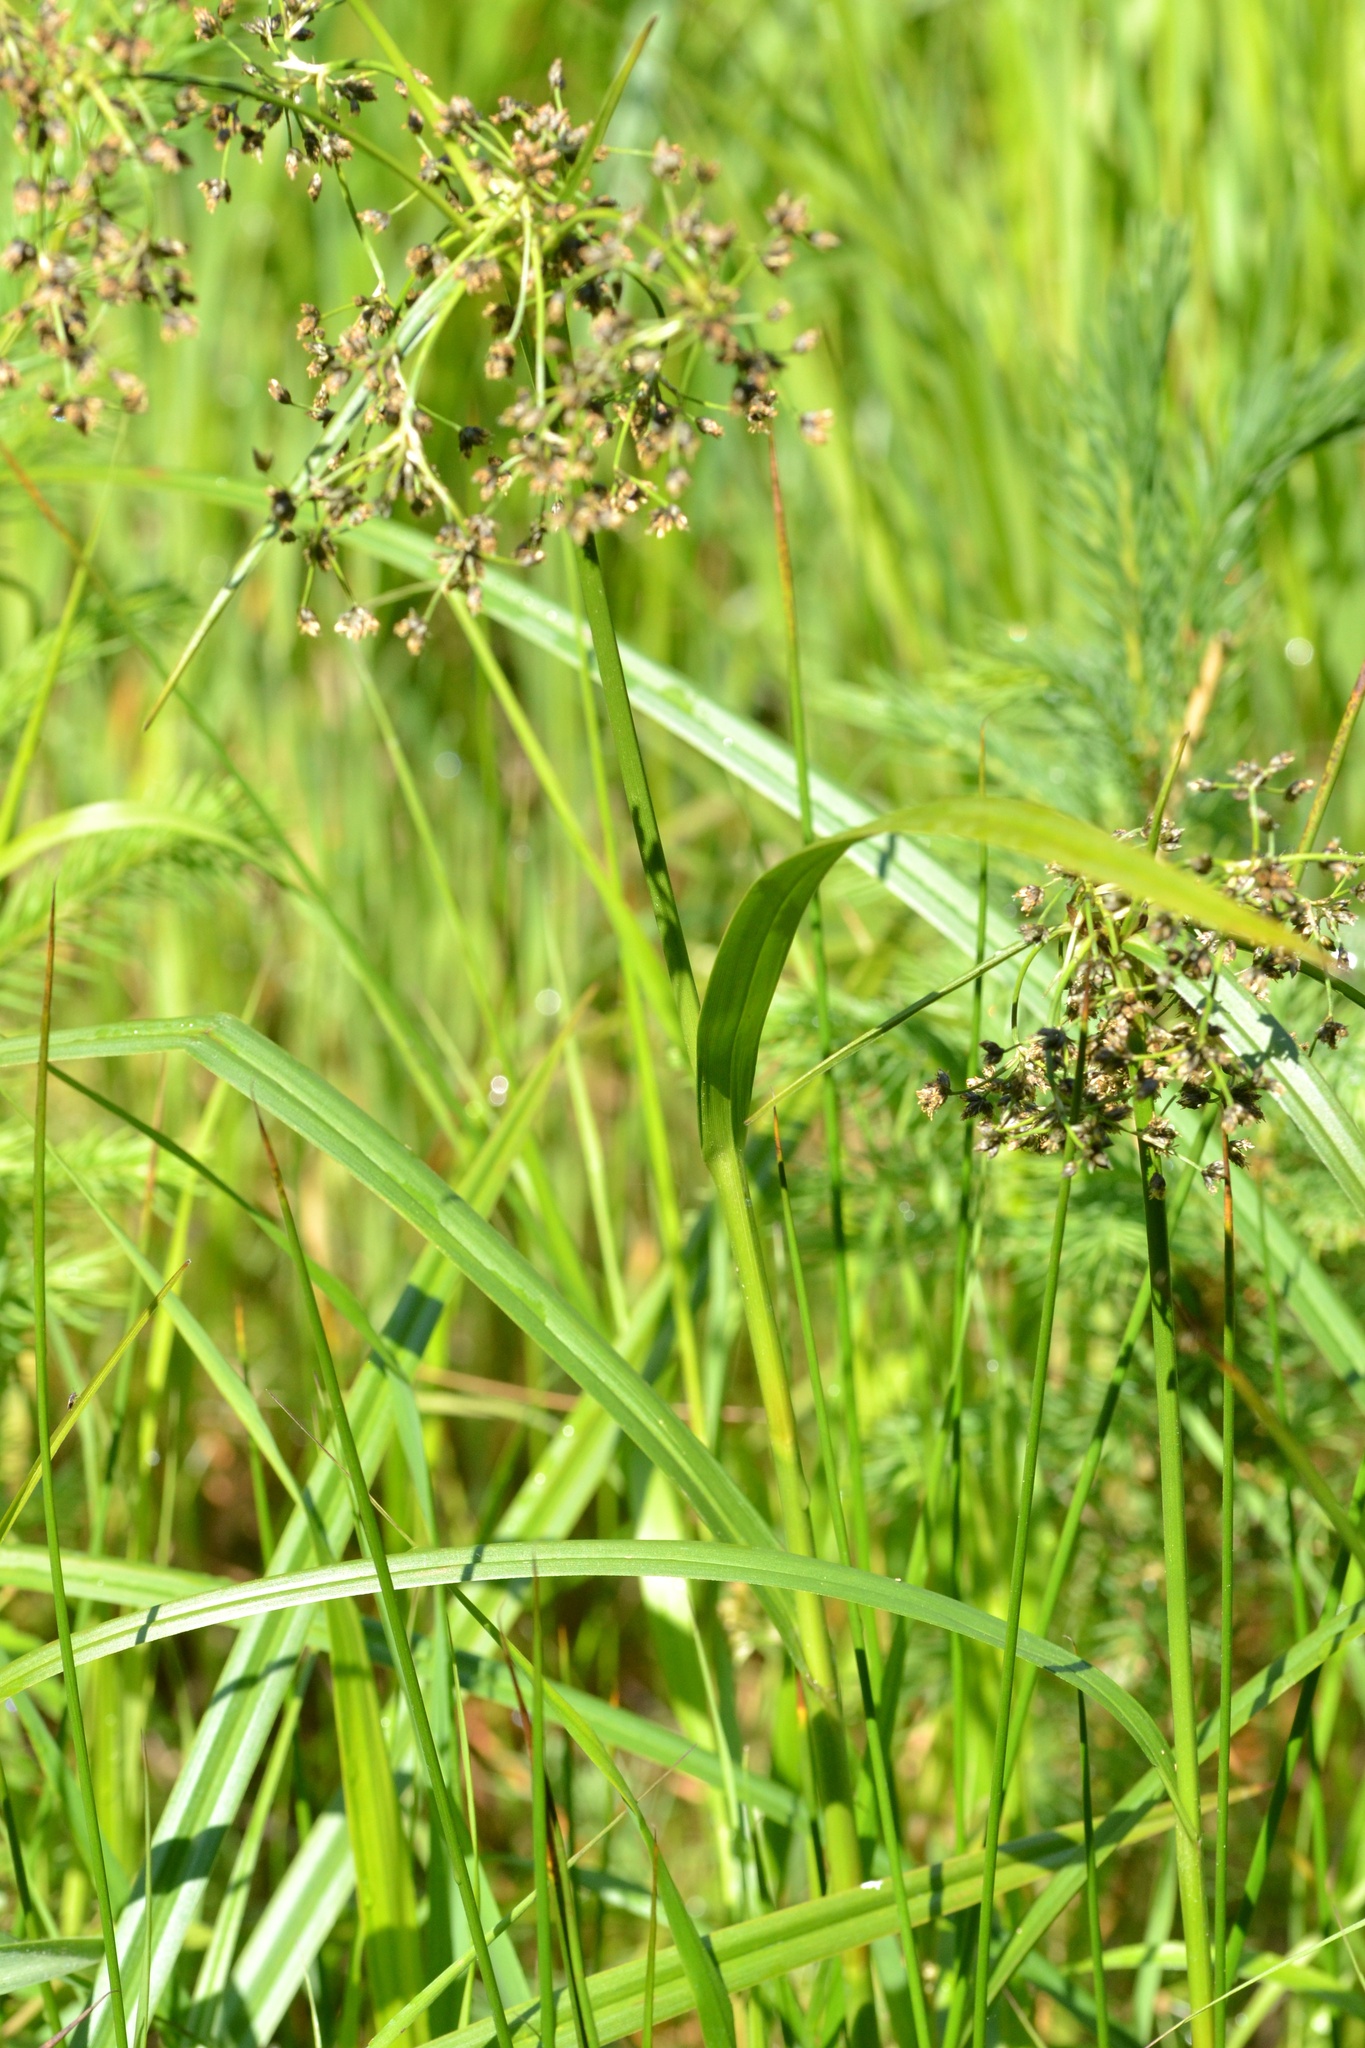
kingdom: Plantae
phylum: Tracheophyta
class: Liliopsida
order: Poales
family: Cyperaceae
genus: Scirpus
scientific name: Scirpus sylvaticus
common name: Wood club-rush
